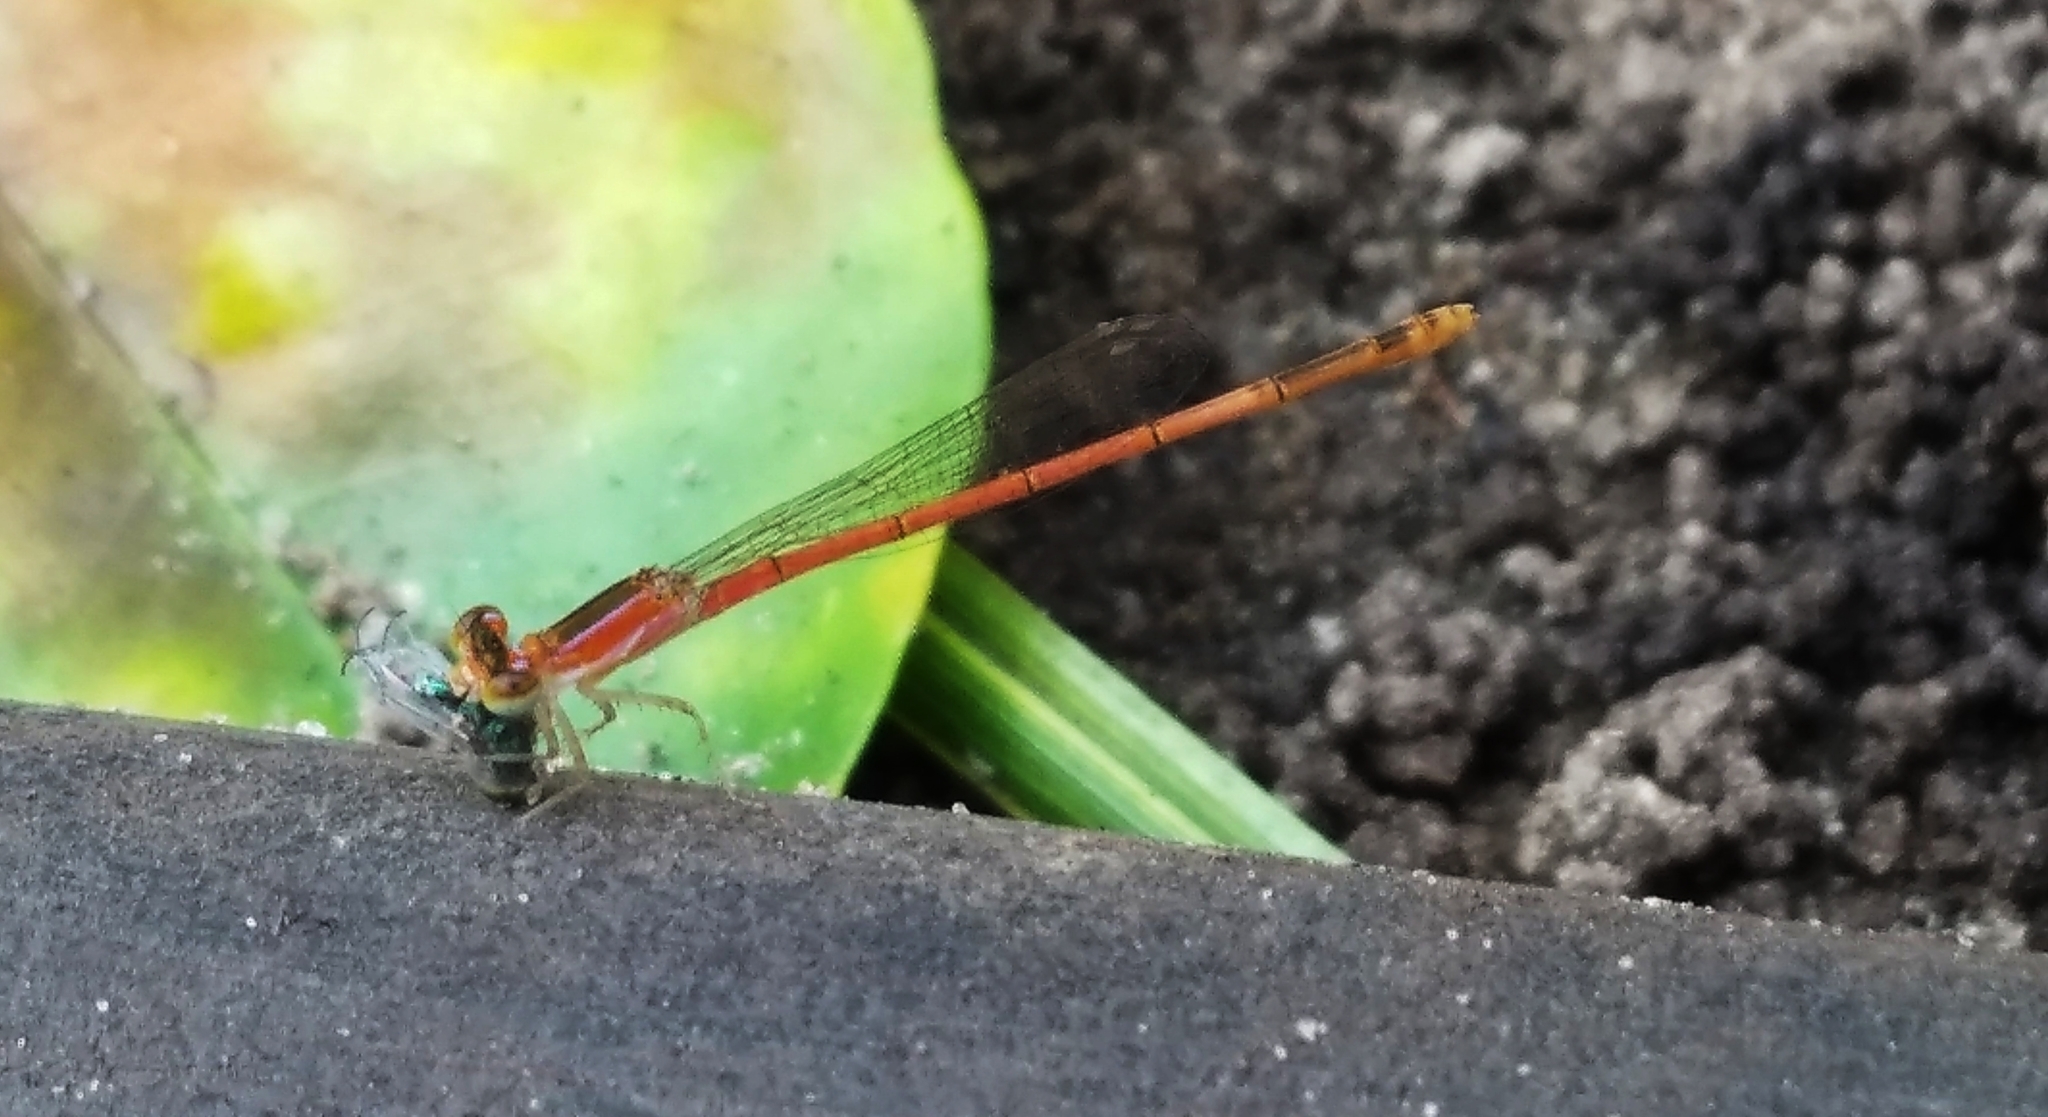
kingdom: Animalia
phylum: Arthropoda
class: Insecta
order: Odonata
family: Coenagrionidae
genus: Agriocnemis
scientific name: Agriocnemis pygmaea
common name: Pygmy wisp
